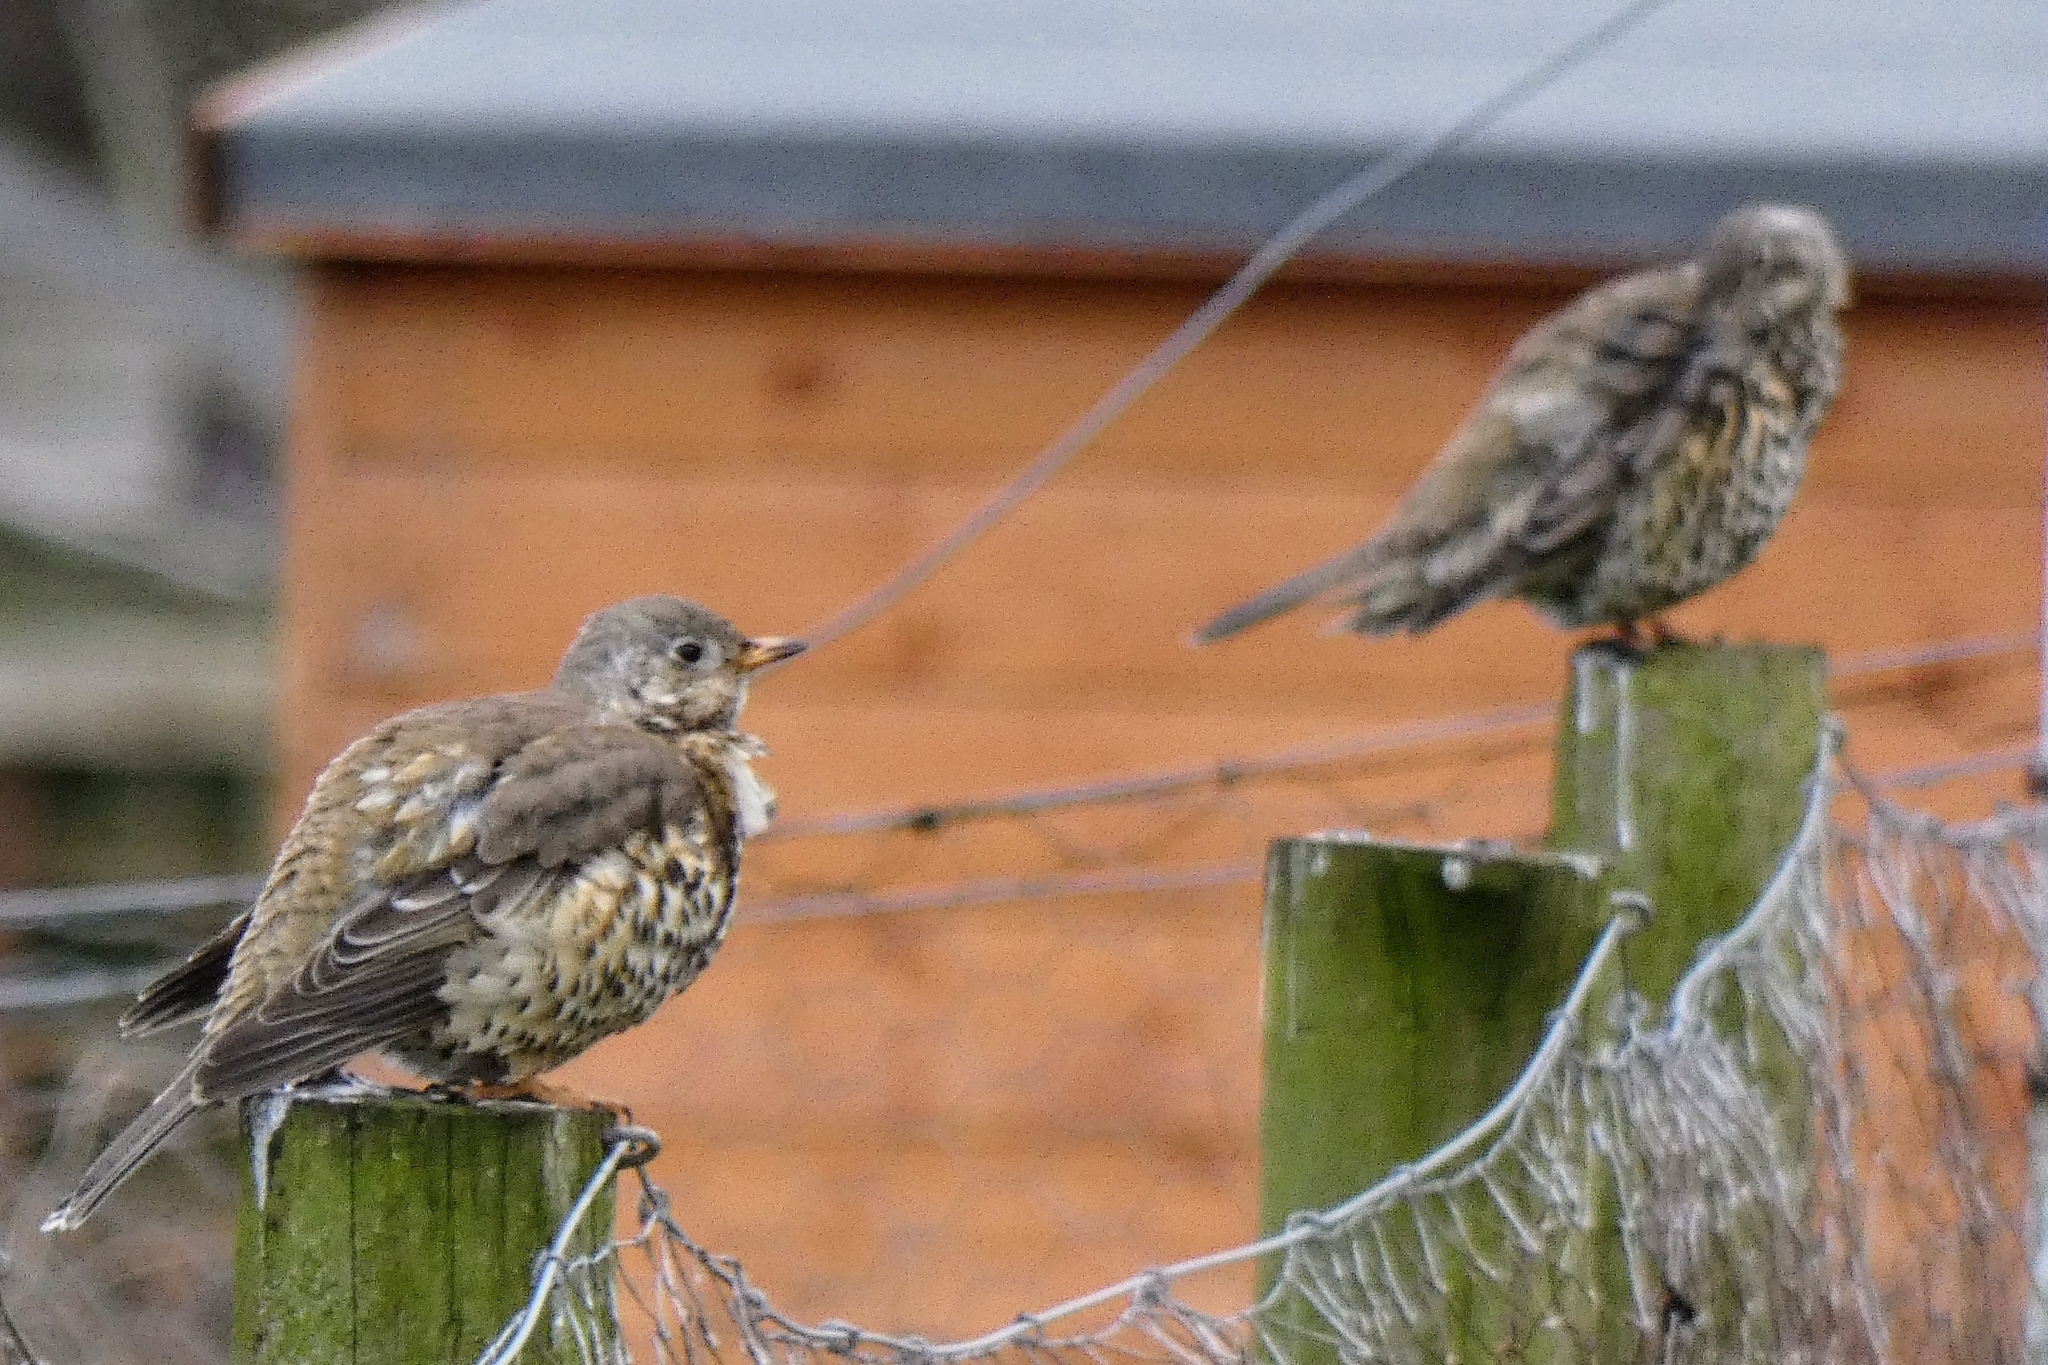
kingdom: Animalia
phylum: Chordata
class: Aves
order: Passeriformes
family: Turdidae
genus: Turdus
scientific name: Turdus viscivorus
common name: Mistle thrush
